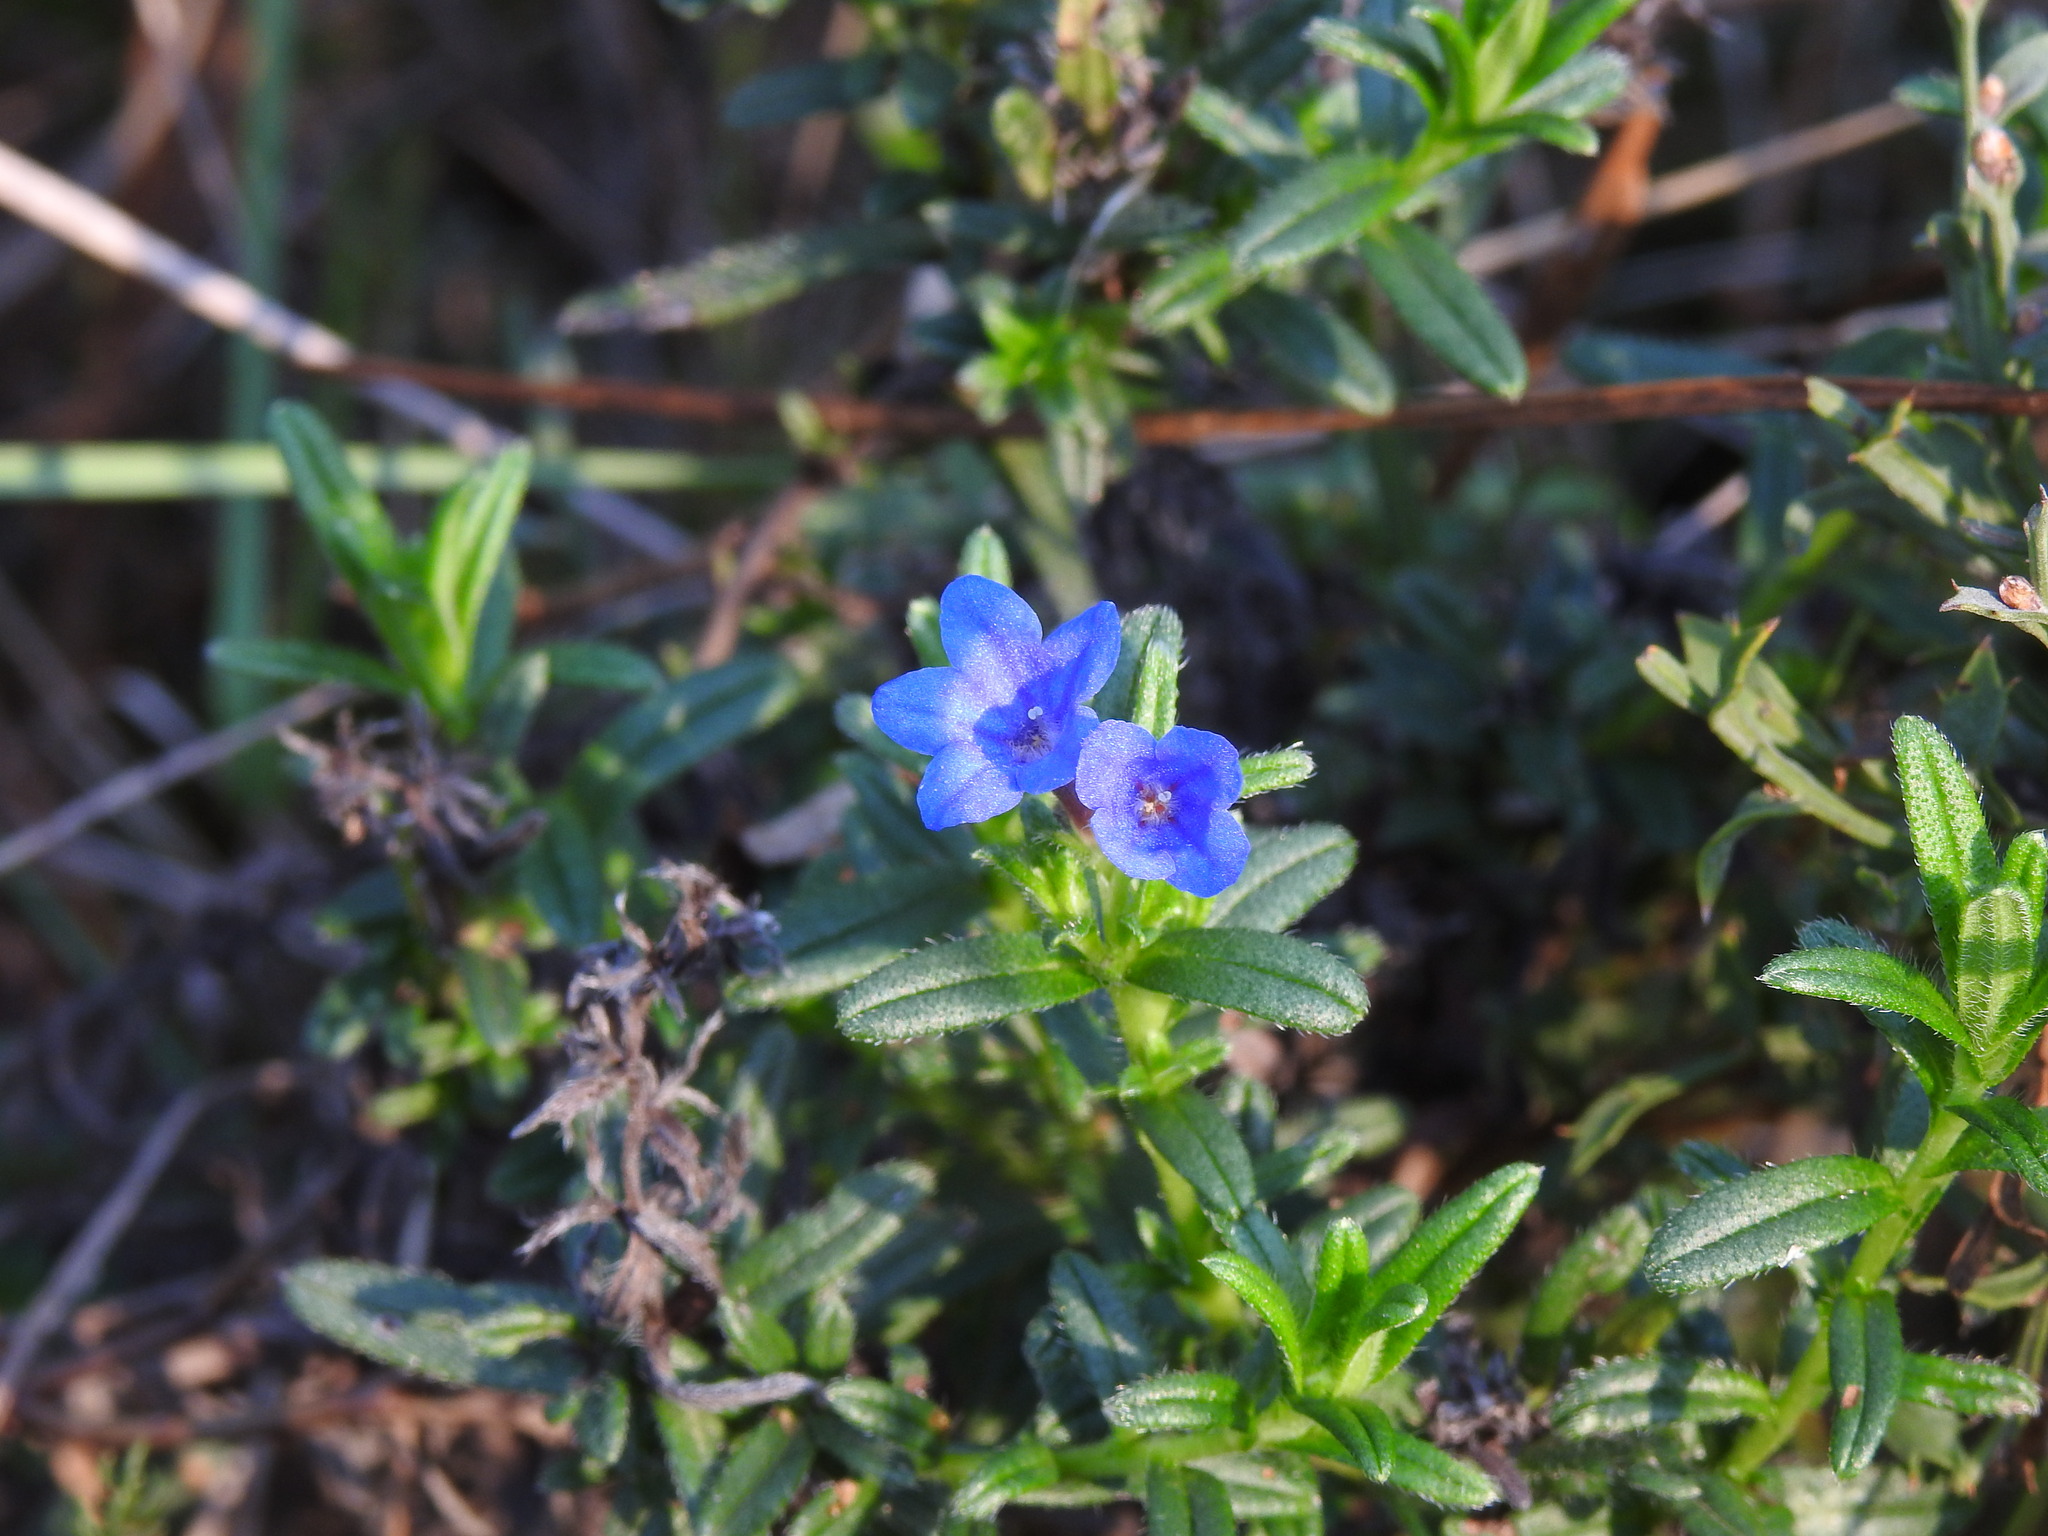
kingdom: Plantae
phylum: Tracheophyta
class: Magnoliopsida
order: Boraginales
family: Boraginaceae
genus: Glandora
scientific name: Glandora prostrata
